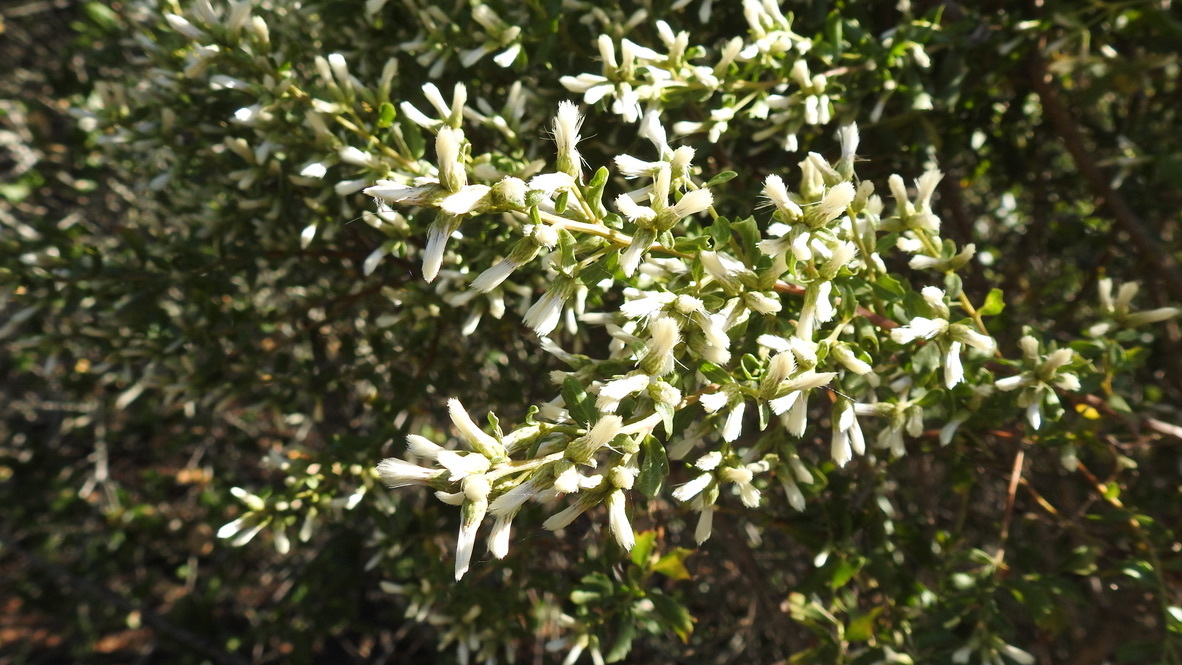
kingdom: Plantae
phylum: Tracheophyta
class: Magnoliopsida
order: Asterales
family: Asteraceae
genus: Baccharis
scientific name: Baccharis pilularis
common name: Coyotebrush
